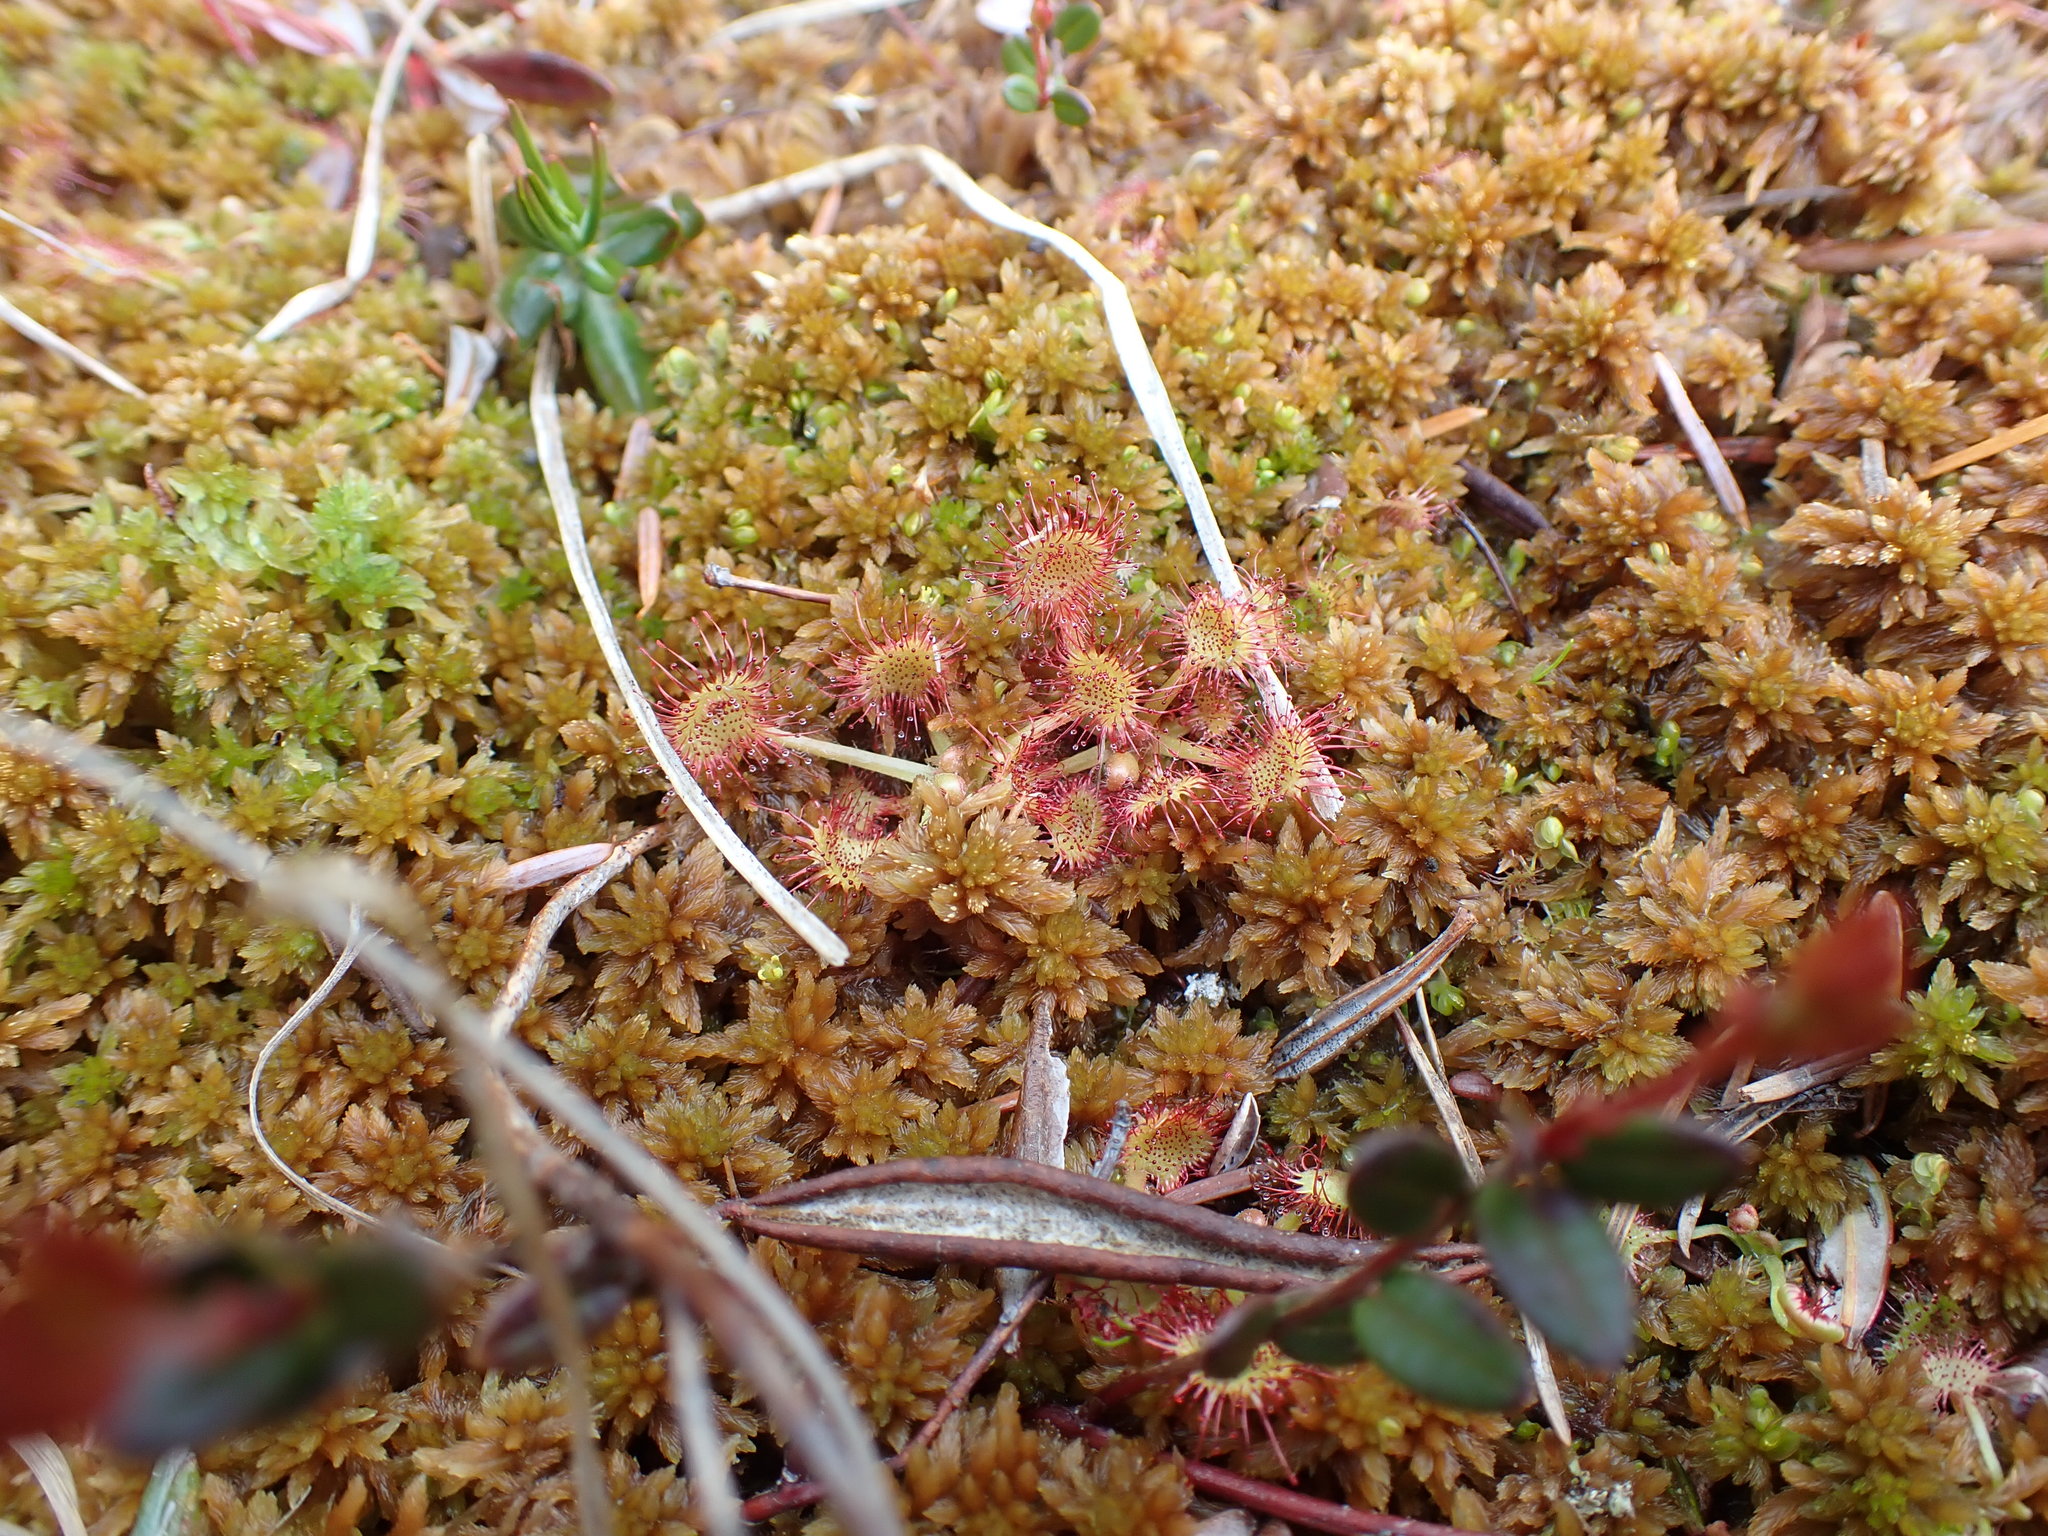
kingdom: Plantae
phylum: Tracheophyta
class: Magnoliopsida
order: Caryophyllales
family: Droseraceae
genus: Drosera
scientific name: Drosera rotundifolia
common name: Round-leaved sundew
